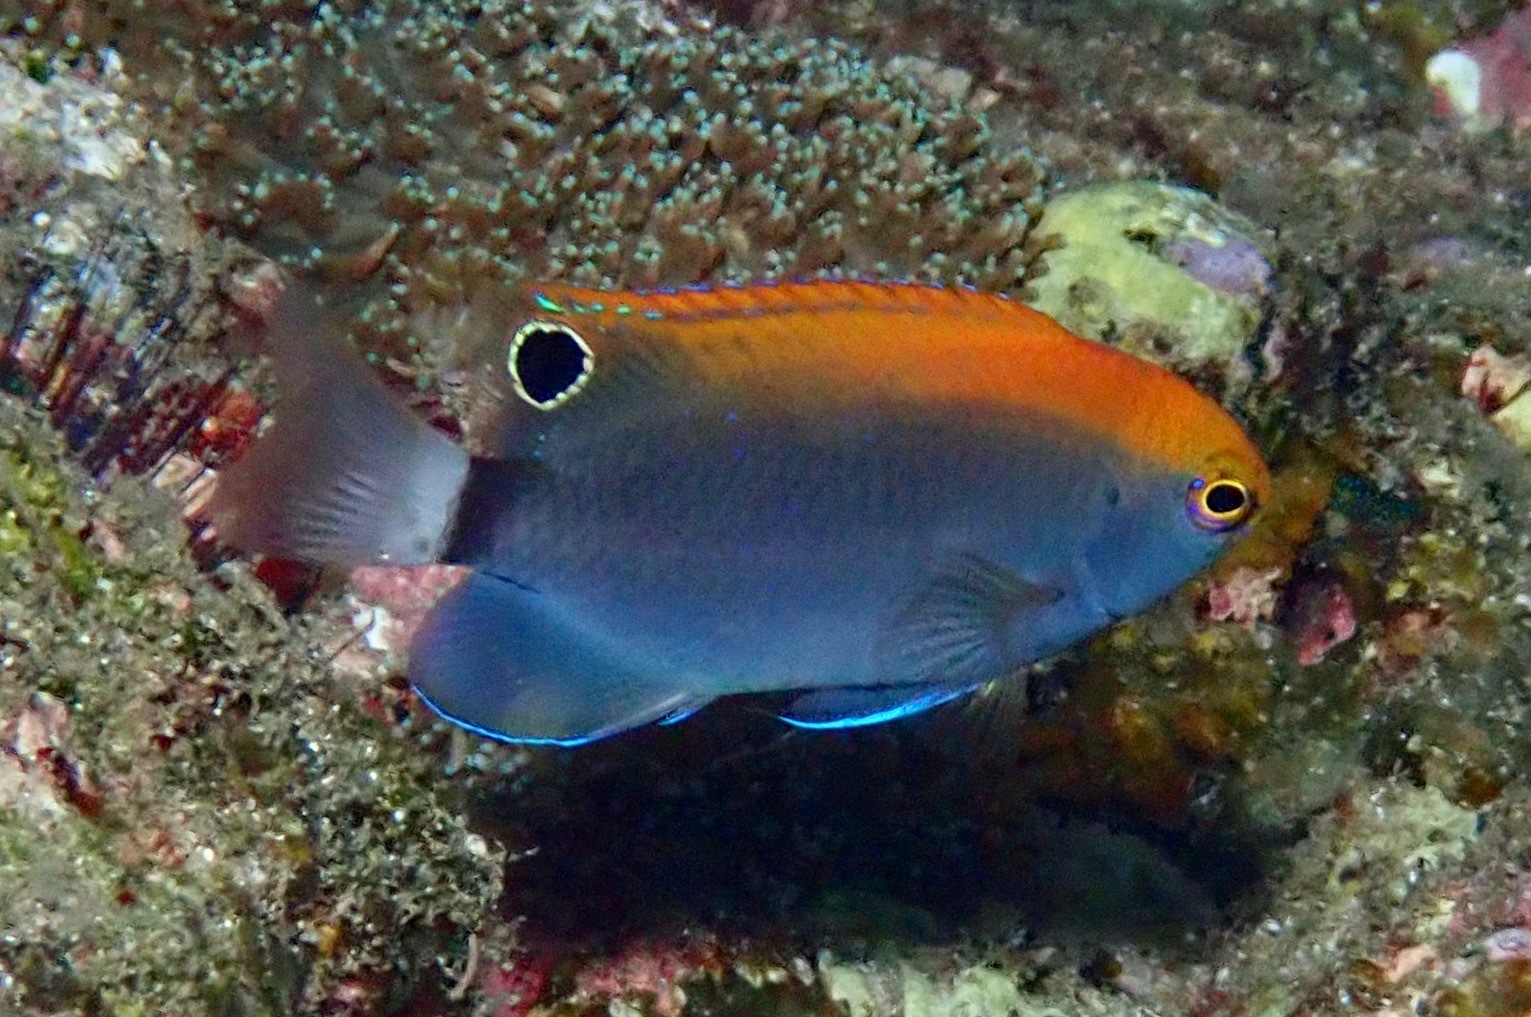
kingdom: Animalia
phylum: Chordata
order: Perciformes
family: Pomacentridae
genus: Pomacentrus
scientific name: Pomacentrus chrysurus
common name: White-tail damsel
